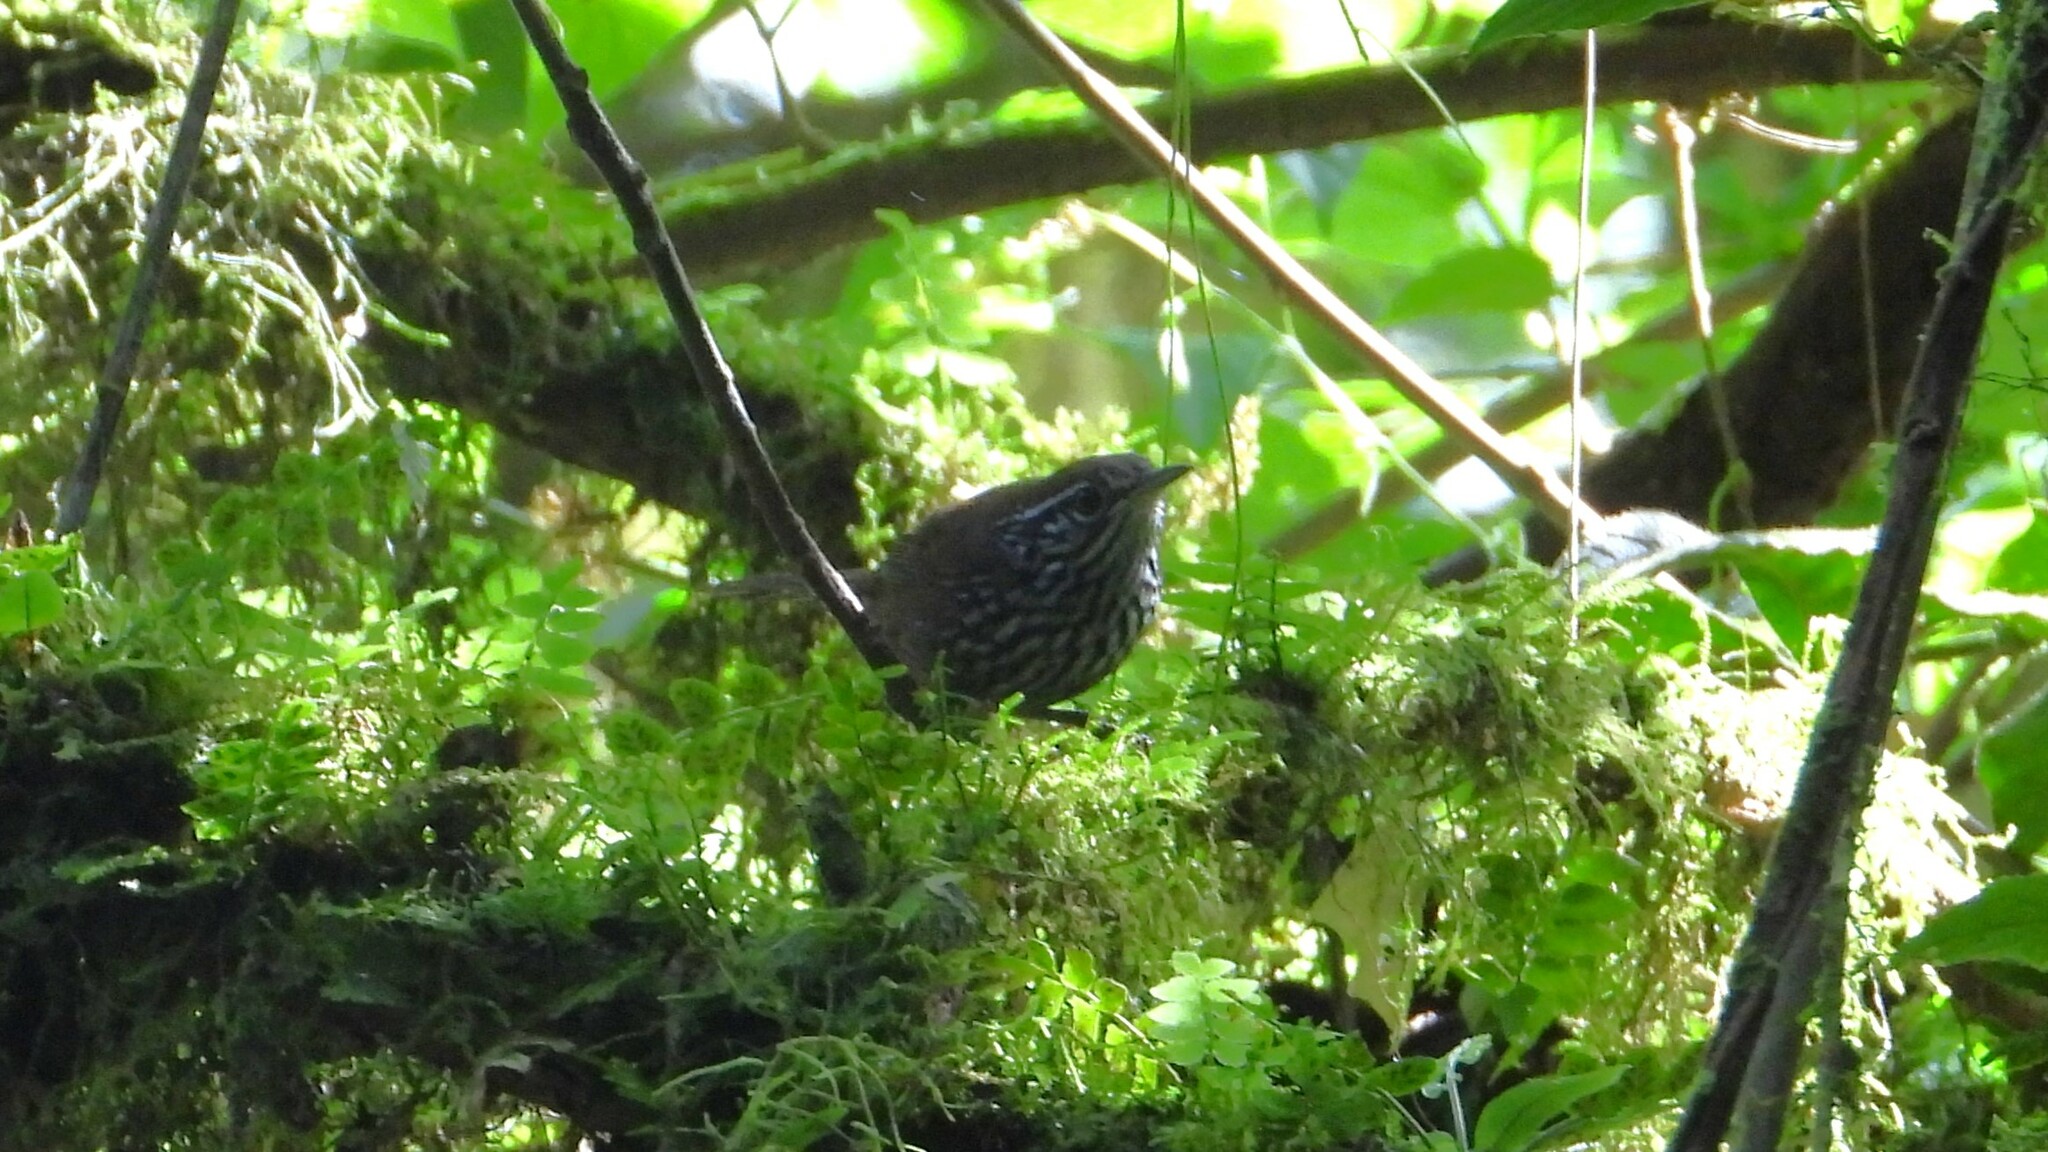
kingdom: Animalia
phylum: Chordata
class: Aves
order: Passeriformes
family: Troglodytidae
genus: Cantorchilus
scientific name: Cantorchilus thoracicus
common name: Stripe-breasted wren
